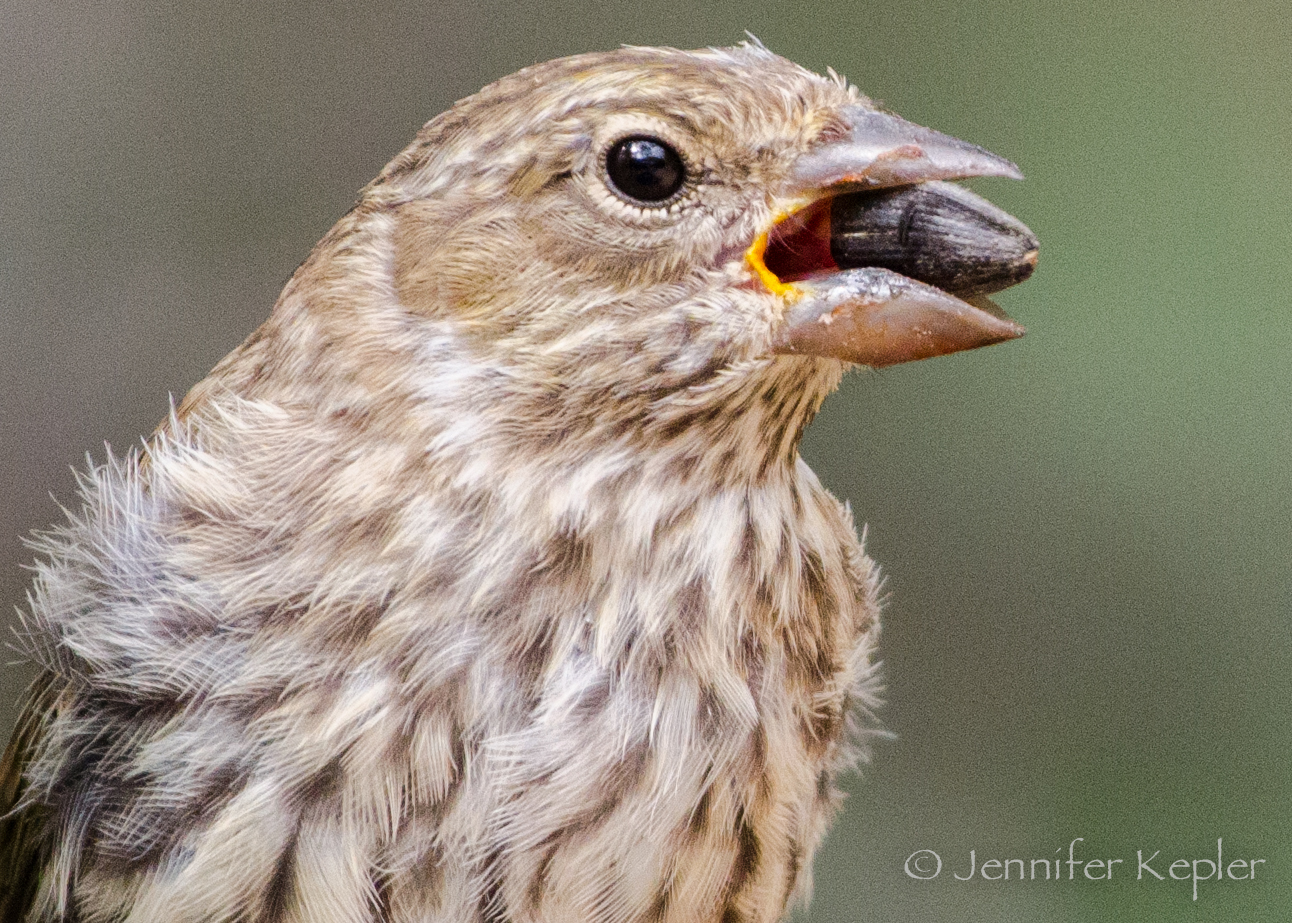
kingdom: Animalia
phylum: Chordata
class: Aves
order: Passeriformes
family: Fringillidae
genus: Haemorhous
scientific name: Haemorhous mexicanus
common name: House finch
